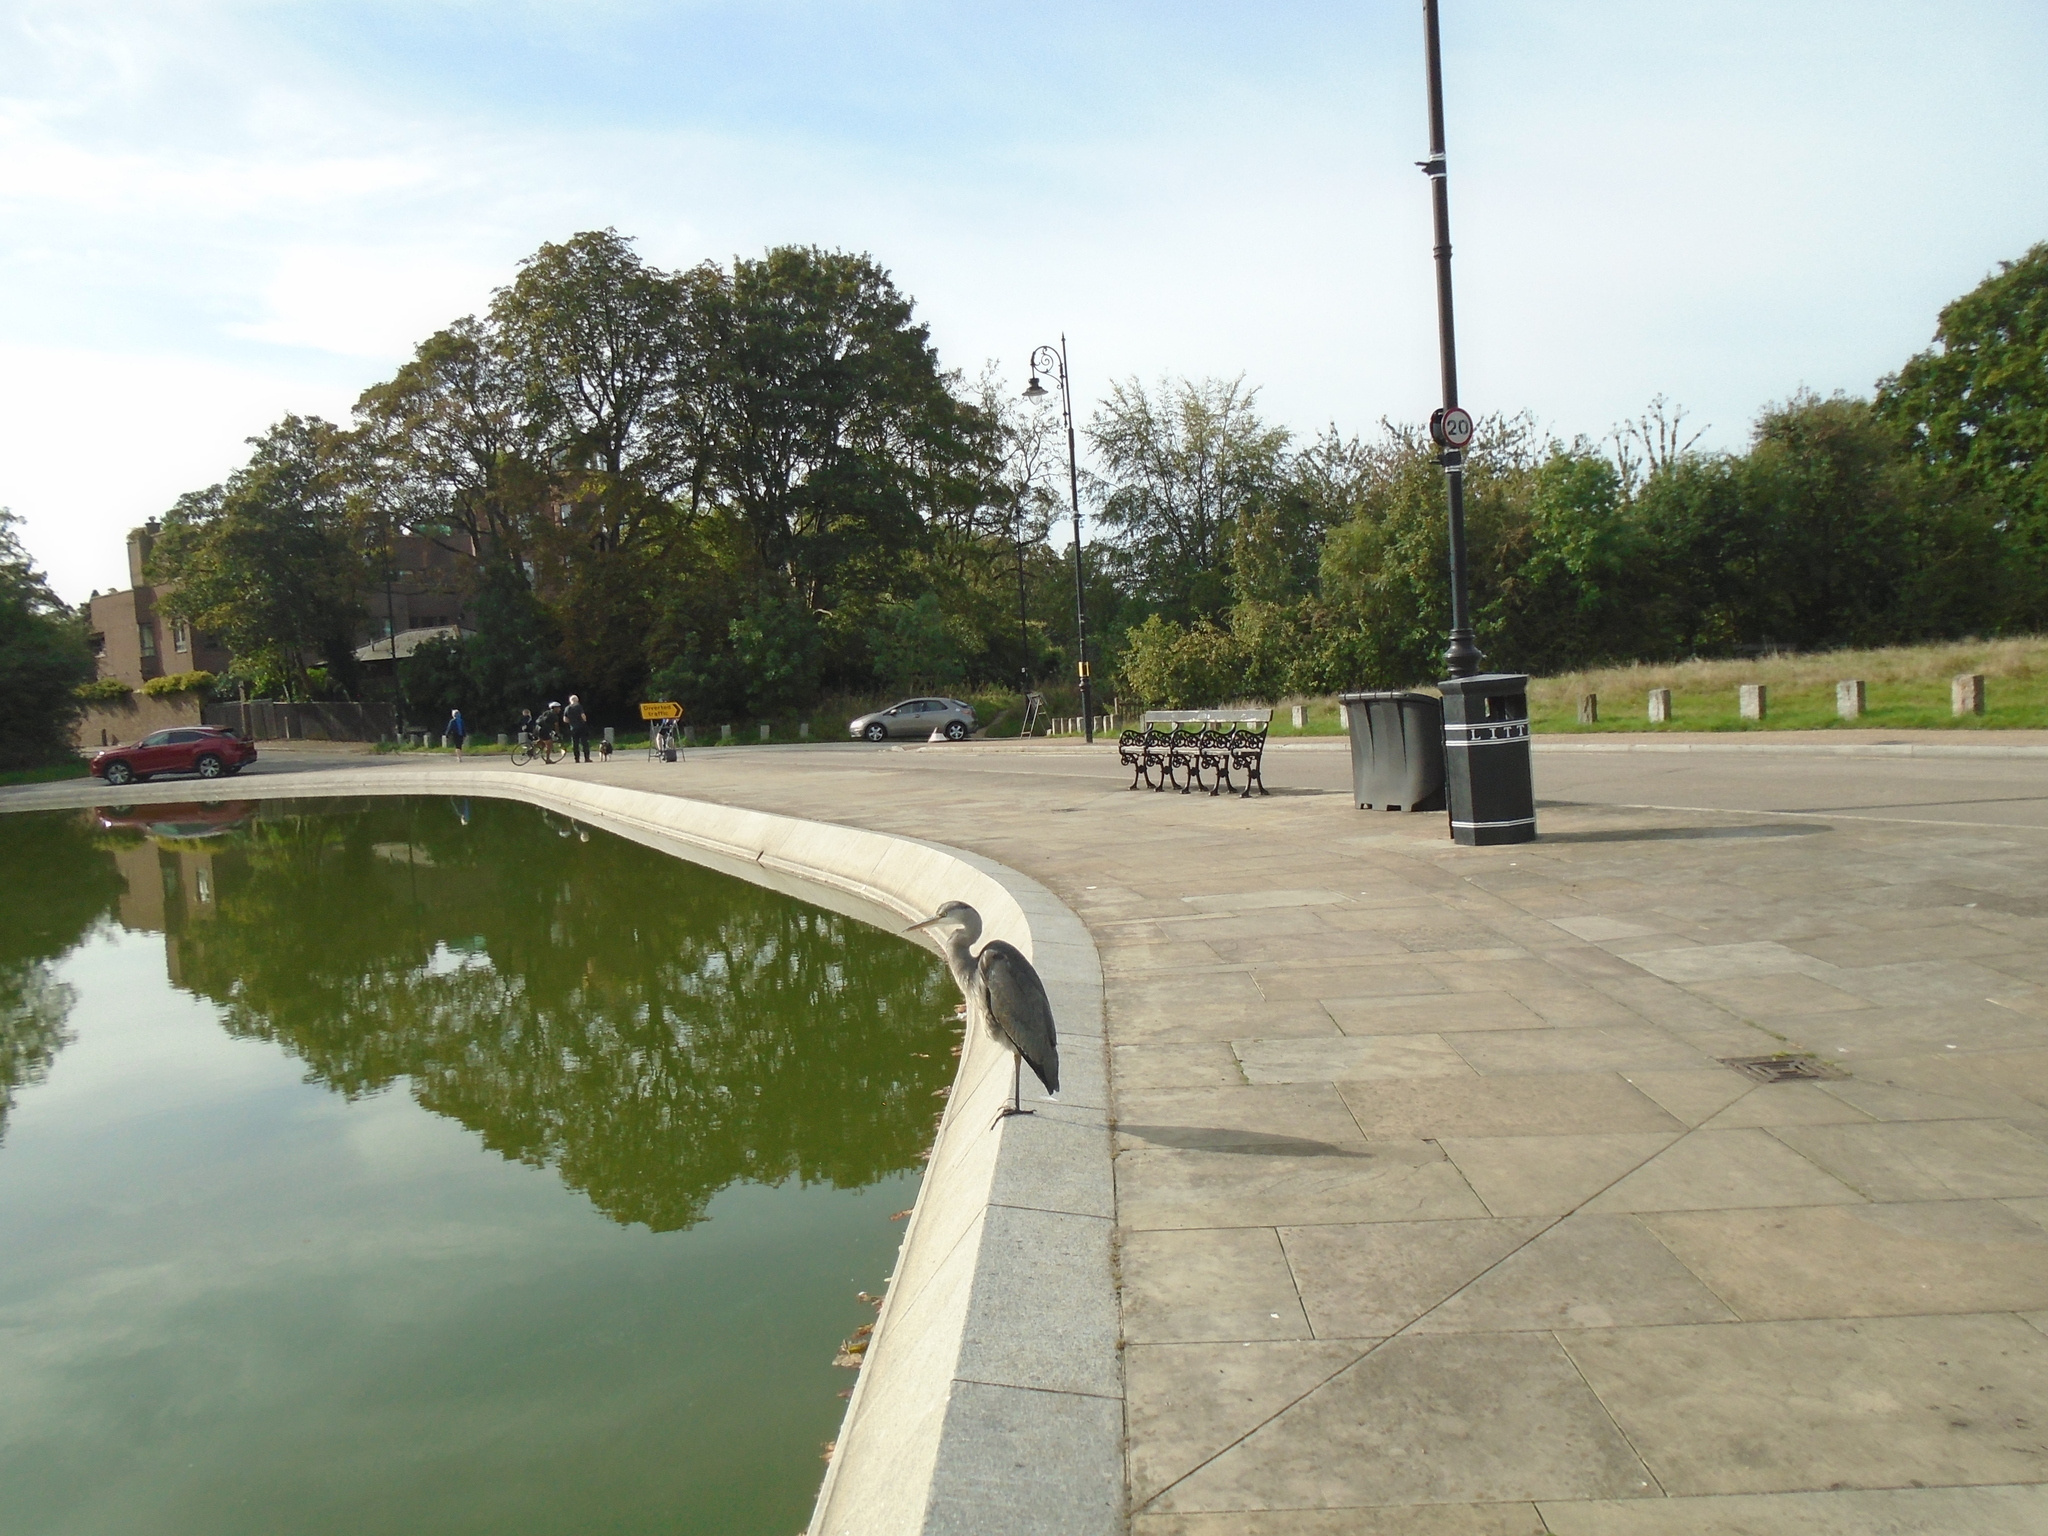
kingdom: Animalia
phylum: Chordata
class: Aves
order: Pelecaniformes
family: Ardeidae
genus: Ardea
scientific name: Ardea cinerea
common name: Grey heron
